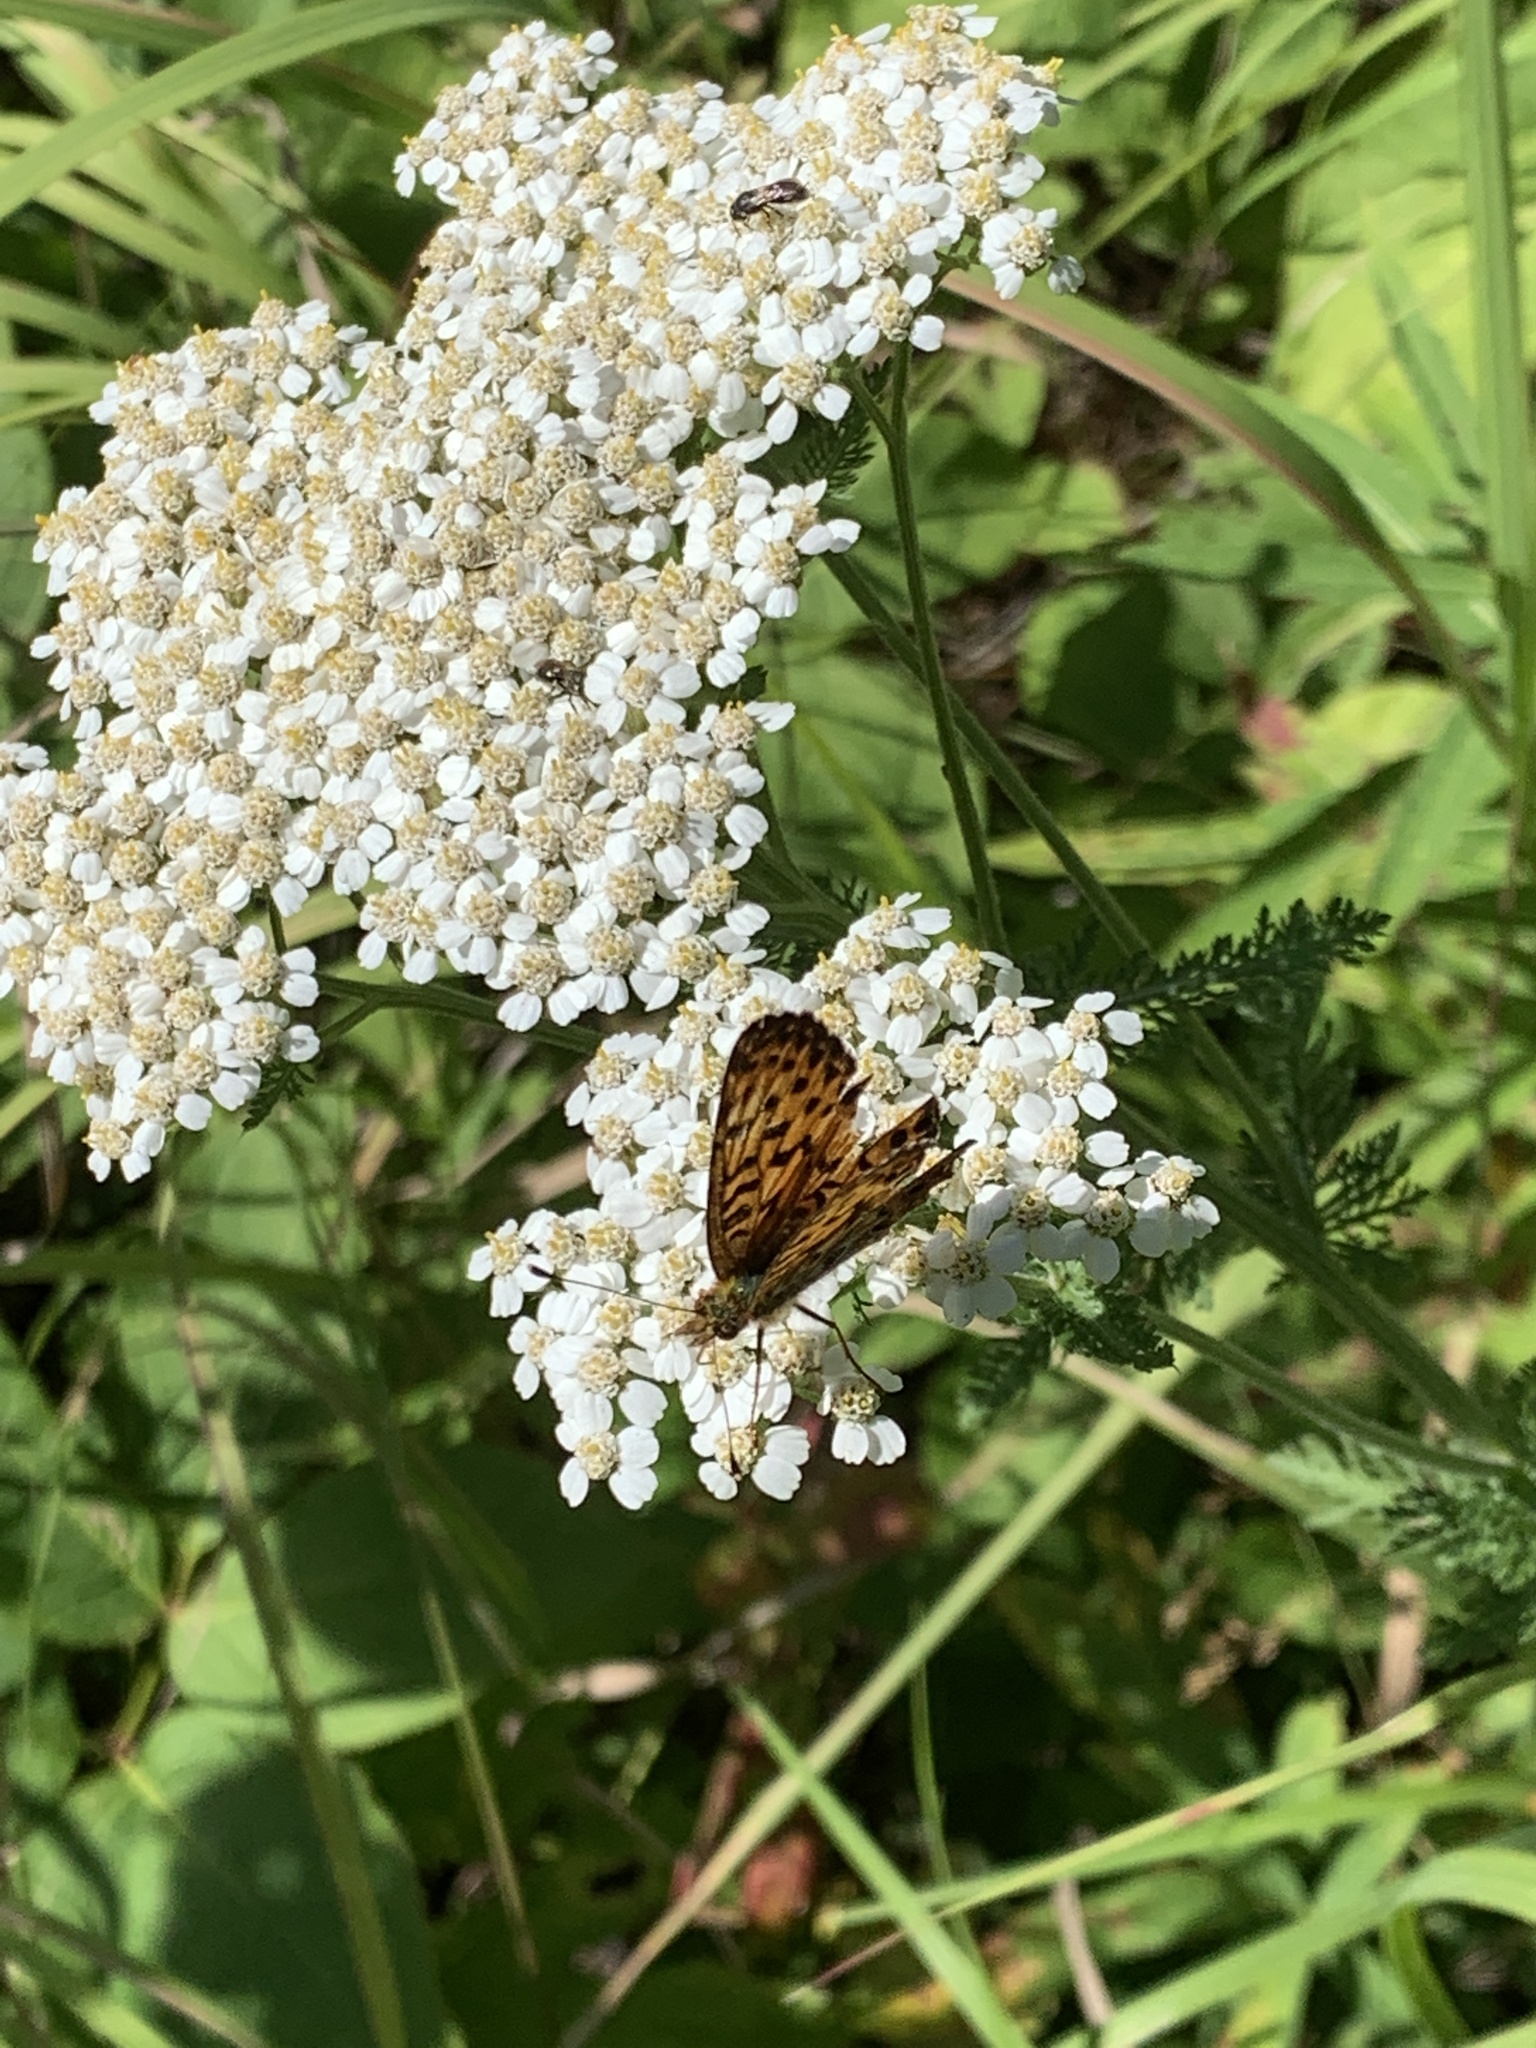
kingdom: Animalia
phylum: Arthropoda
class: Insecta
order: Lepidoptera
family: Nymphalidae
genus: Boloria
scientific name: Boloria chariclea
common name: Arctic fritillary
